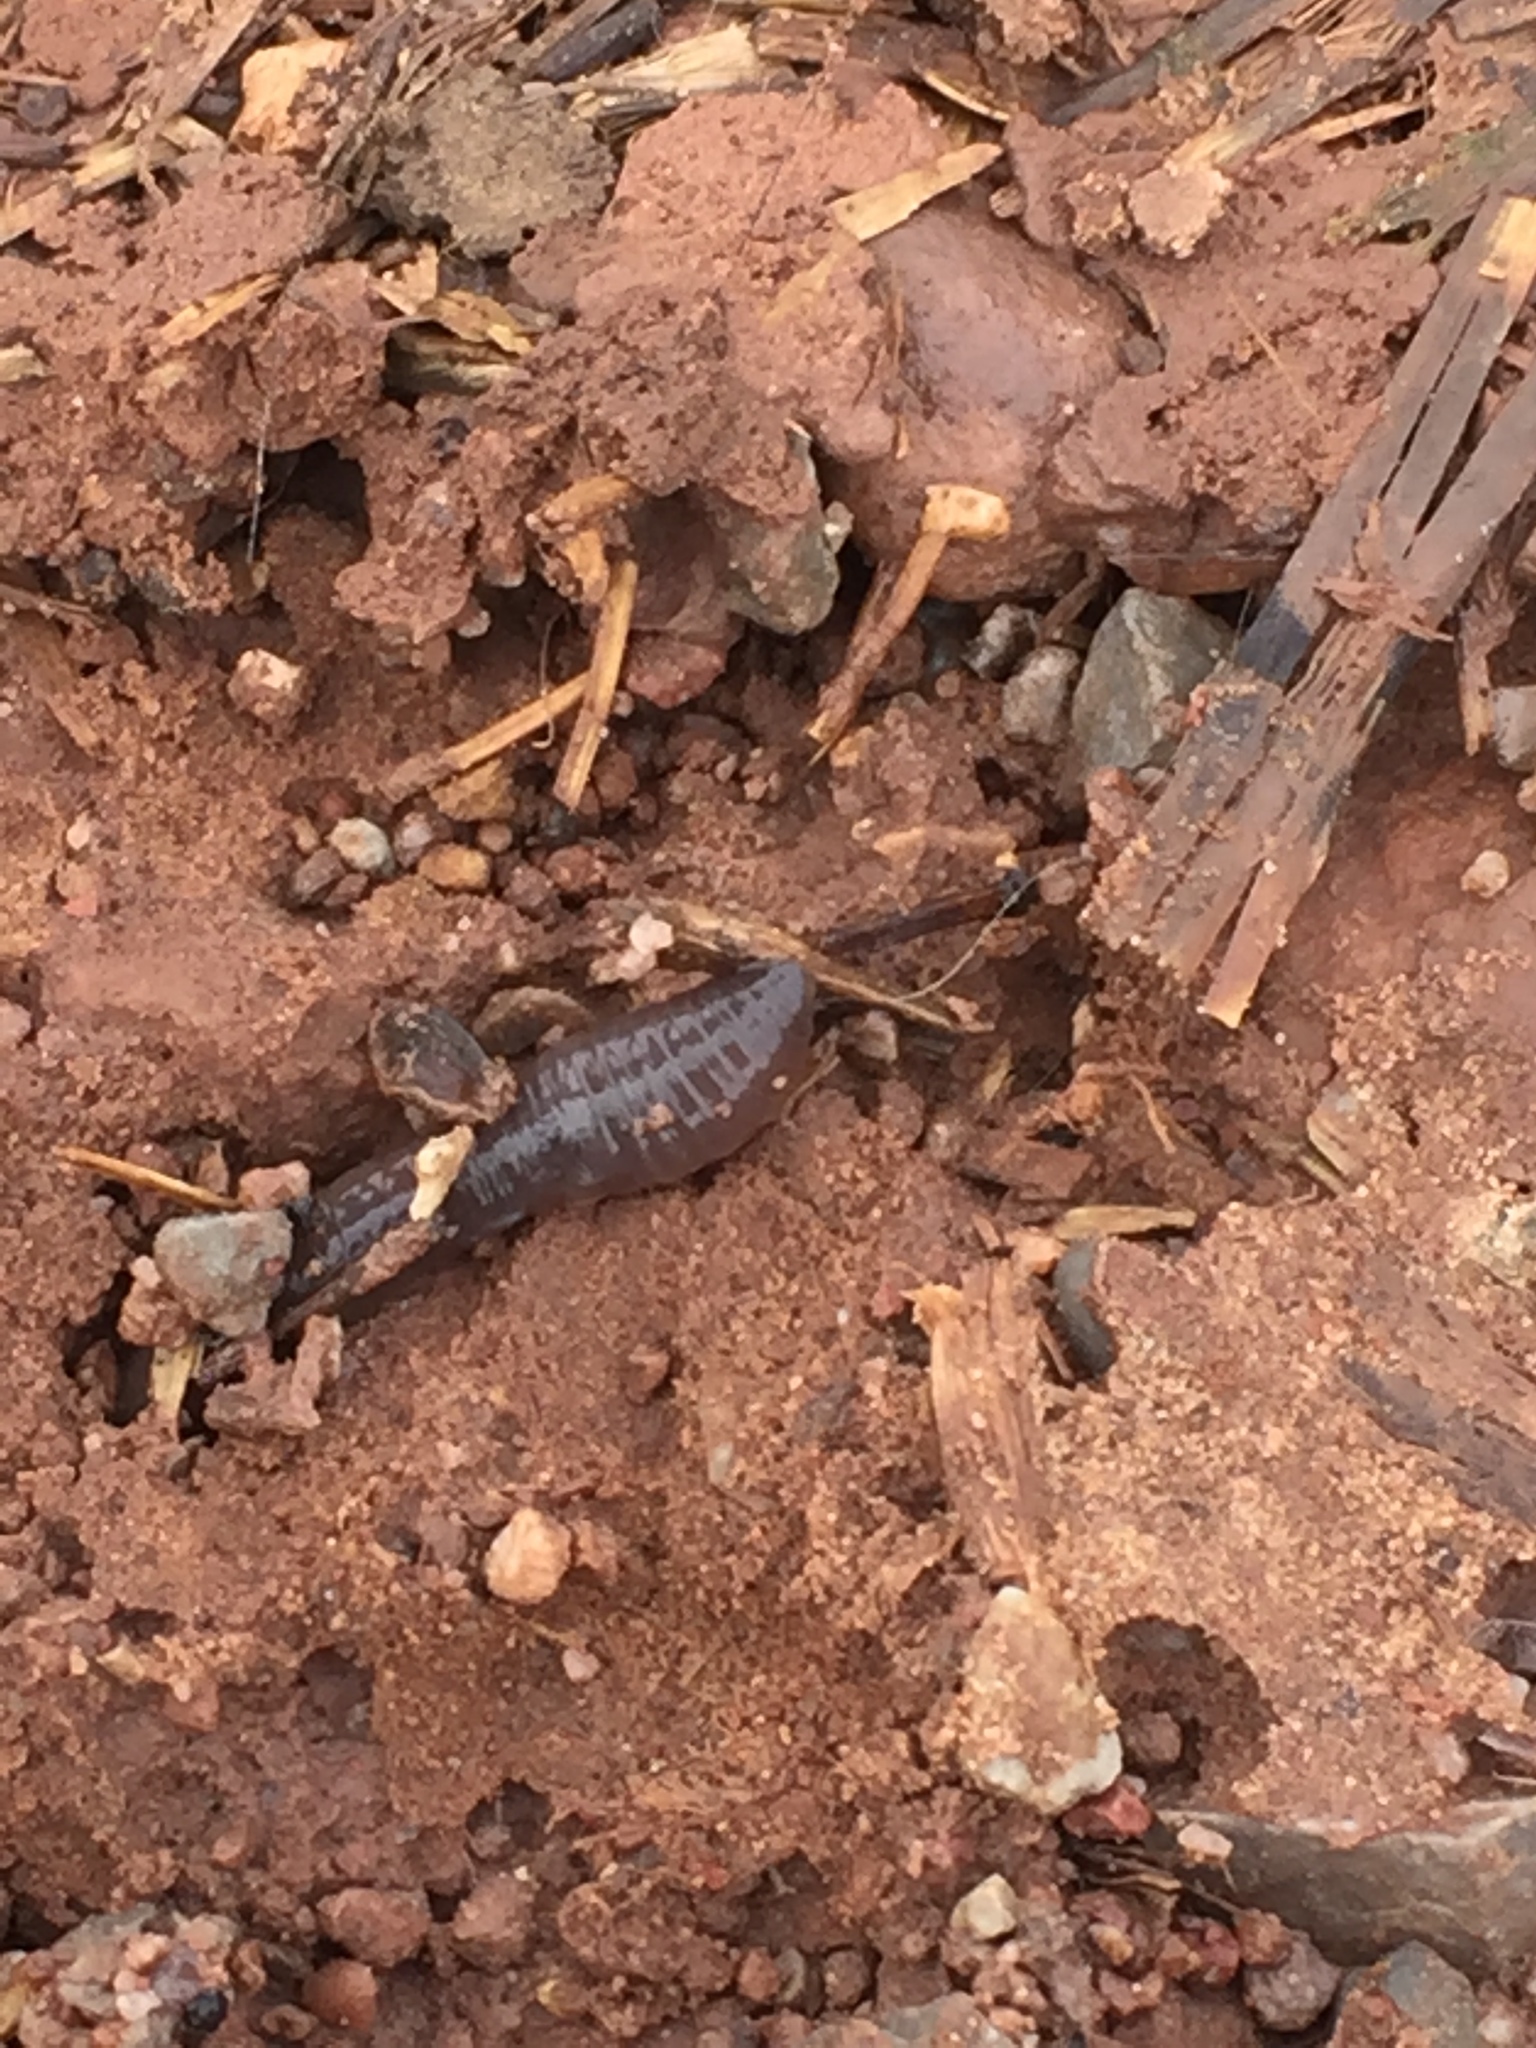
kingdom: Animalia
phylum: Annelida
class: Clitellata
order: Crassiclitellata
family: Lumbricidae
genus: Lumbricus
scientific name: Lumbricus terrestris
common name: Common earthworm
